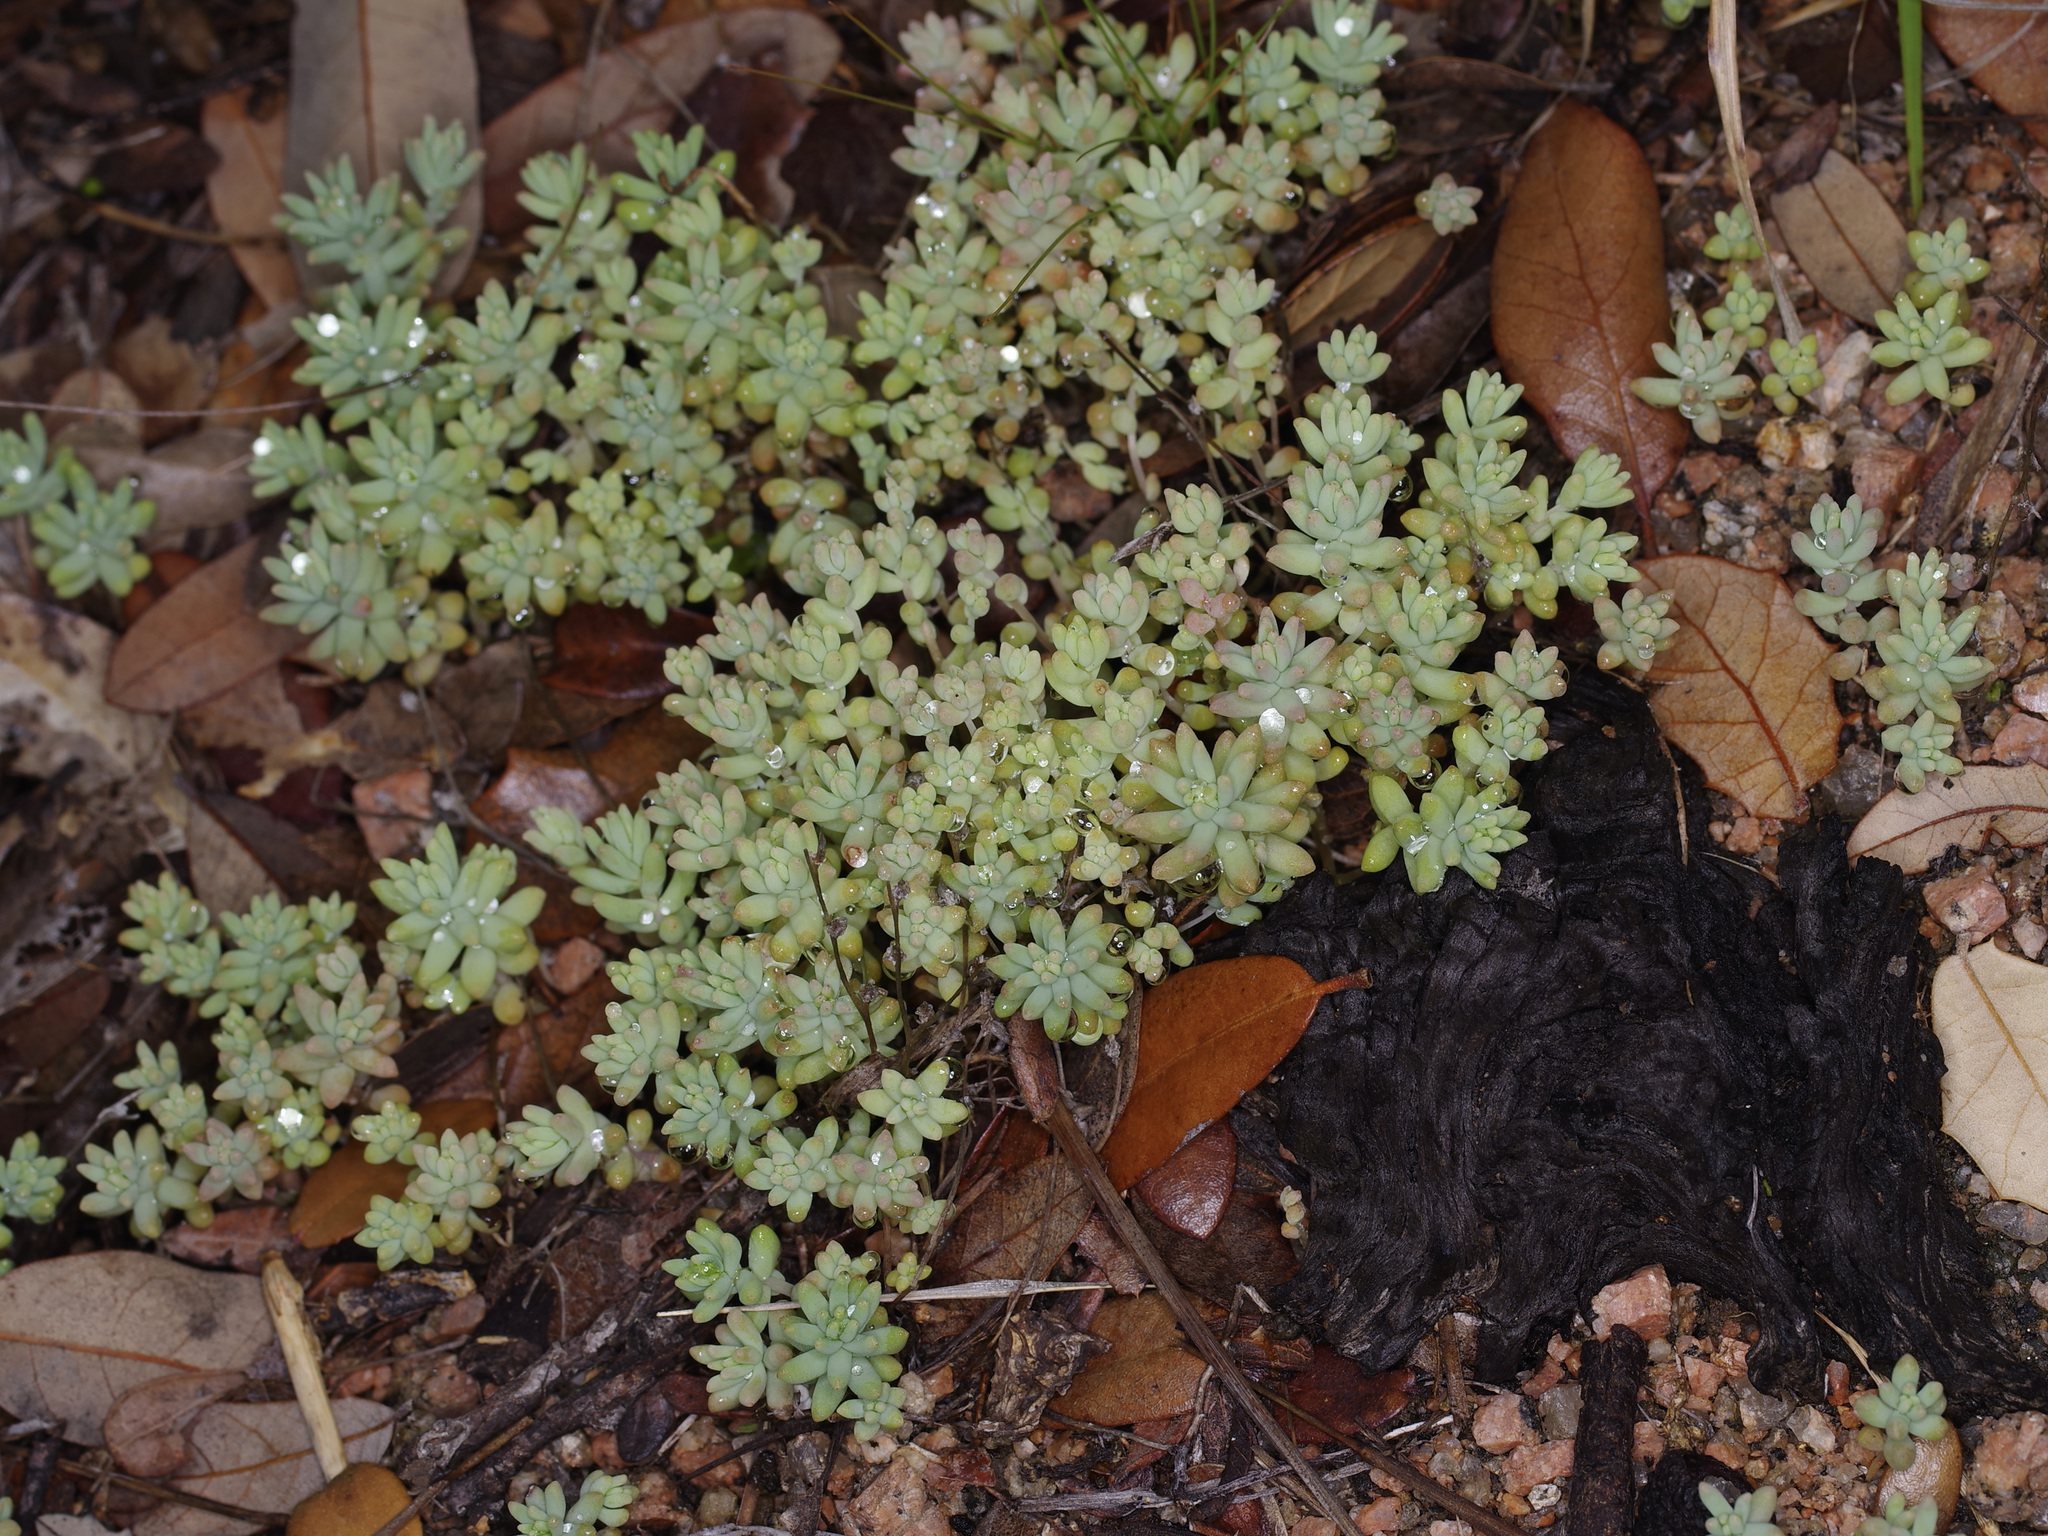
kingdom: Plantae
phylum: Tracheophyta
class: Magnoliopsida
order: Saxifragales
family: Crassulaceae
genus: Sedum
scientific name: Sedum nuttallii
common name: Yellow stonecrop
